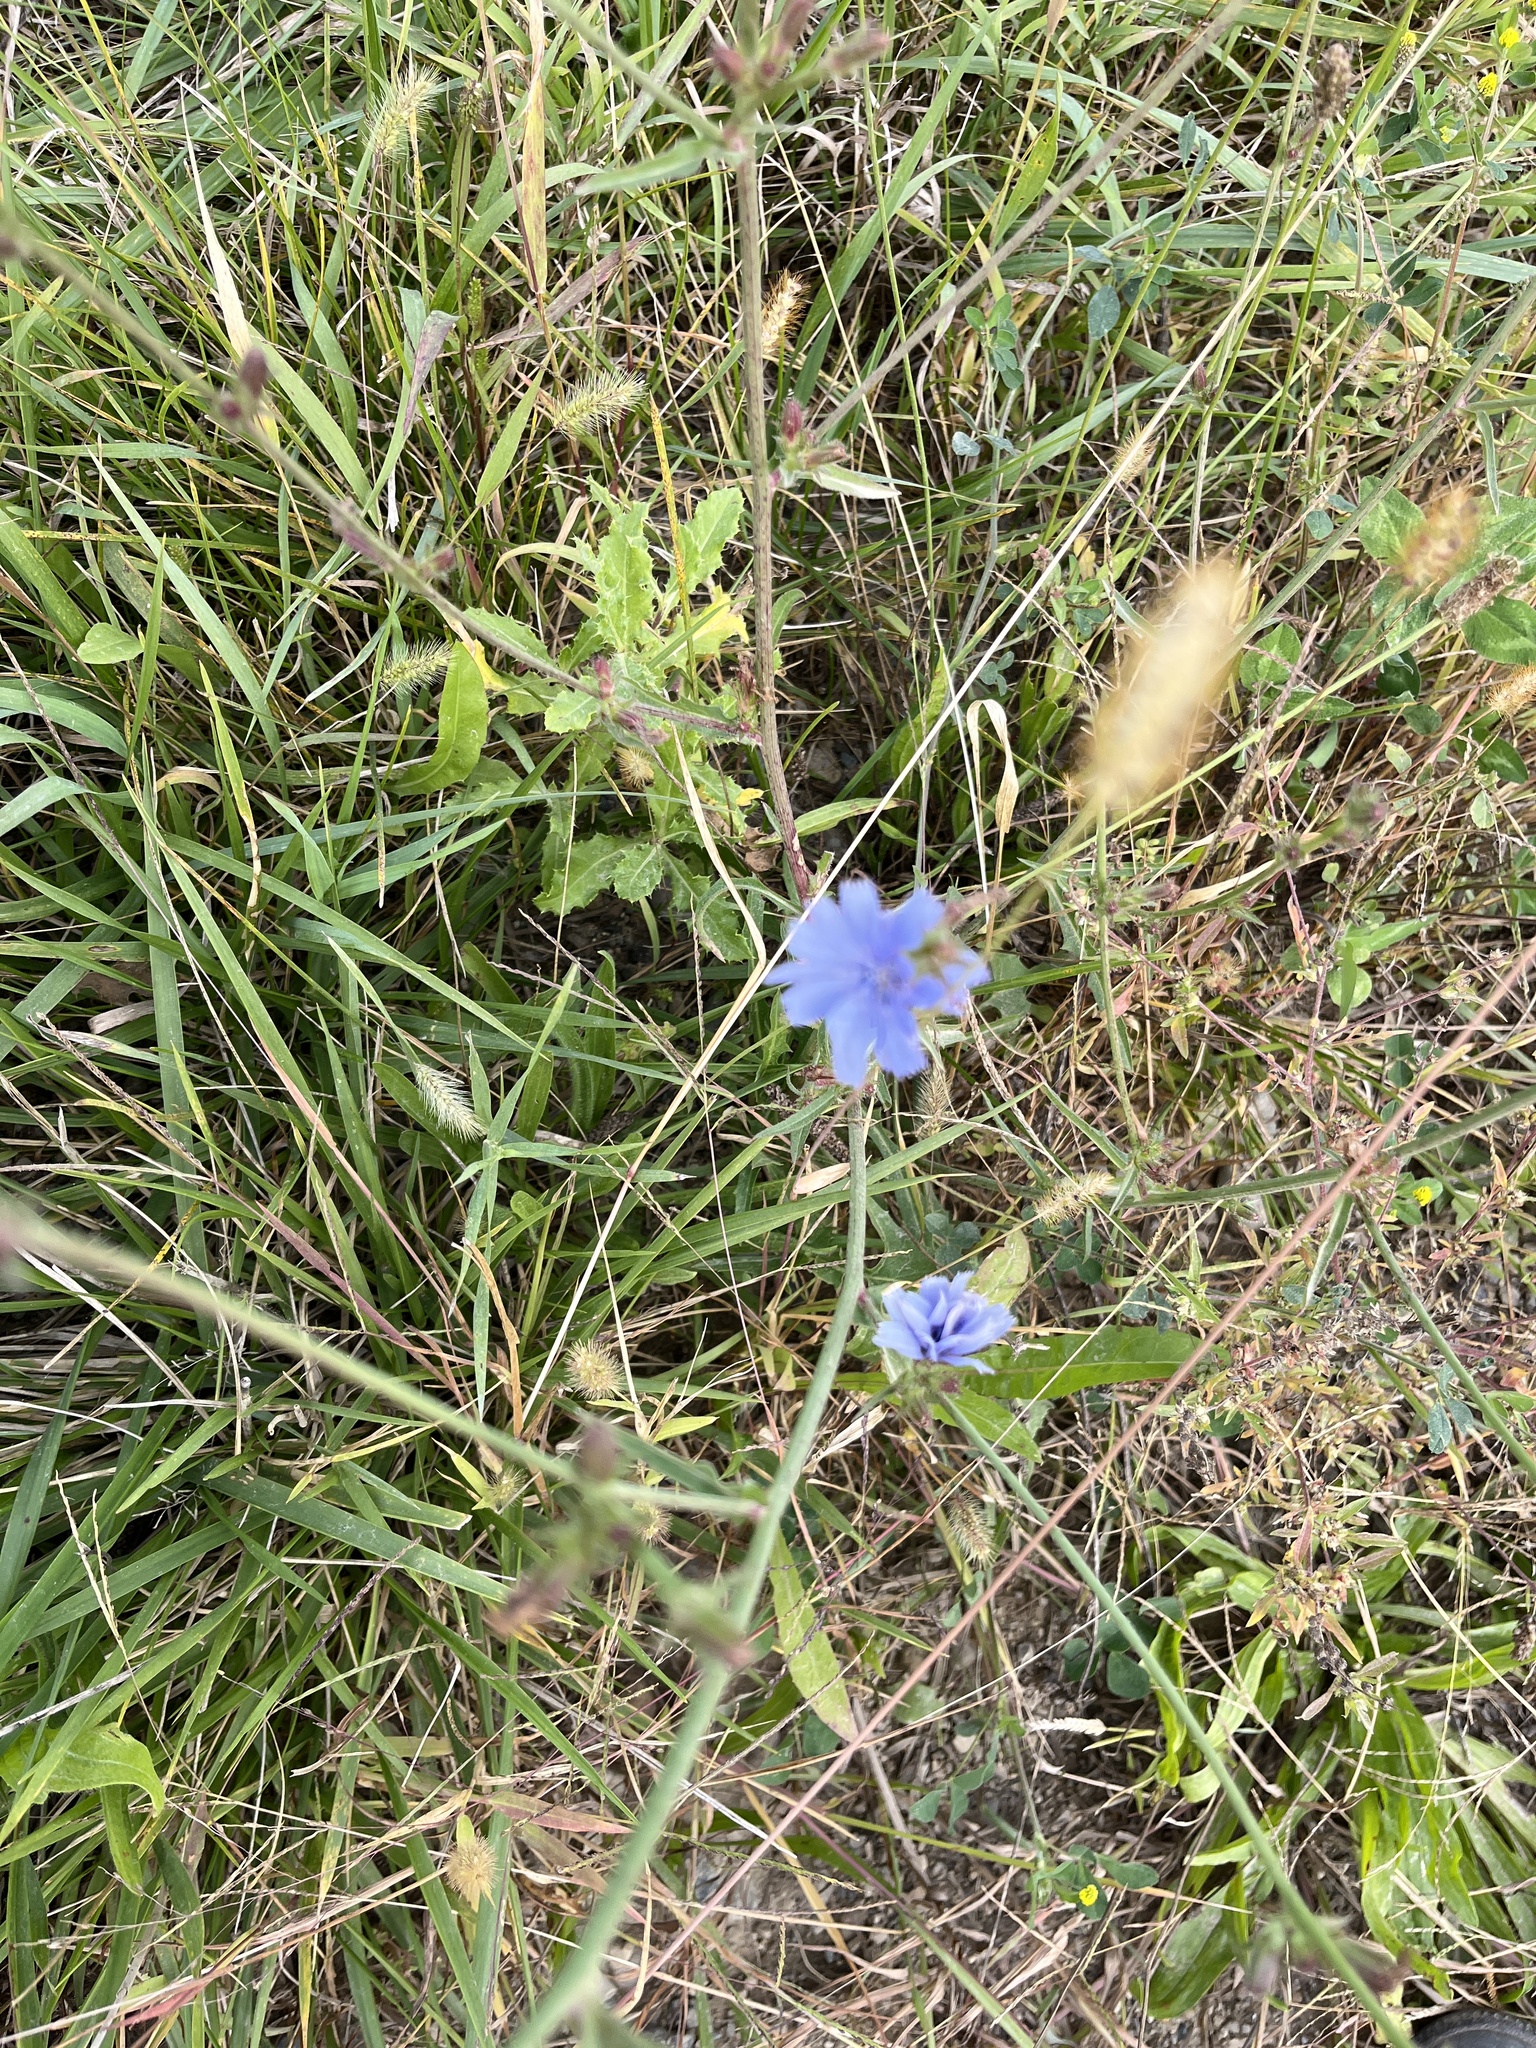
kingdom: Plantae
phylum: Tracheophyta
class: Magnoliopsida
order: Asterales
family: Asteraceae
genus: Cichorium
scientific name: Cichorium intybus
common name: Chicory
